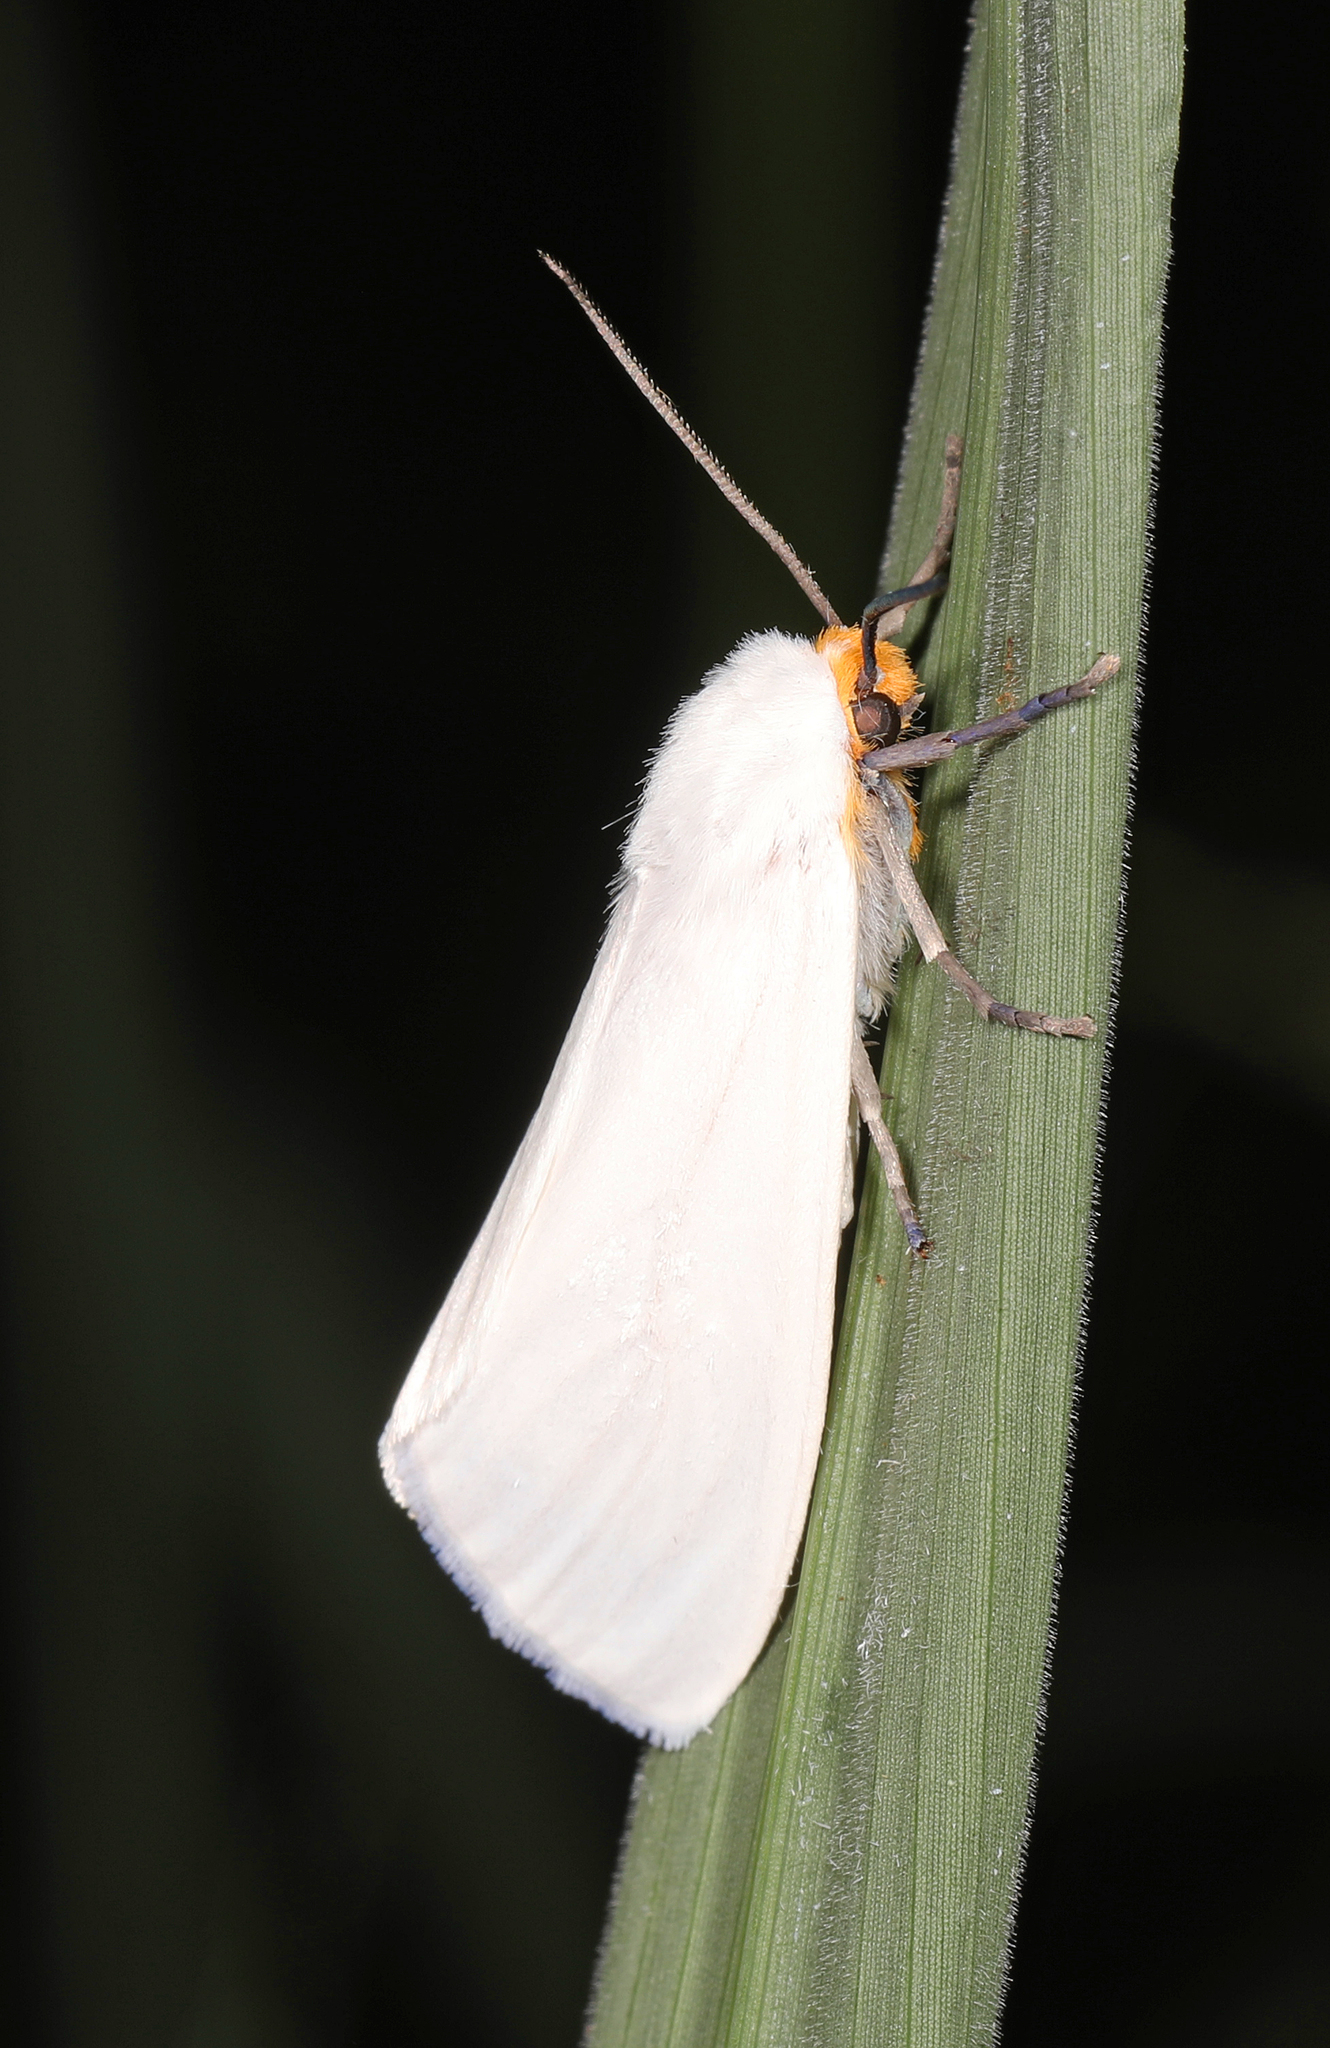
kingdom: Animalia
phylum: Arthropoda
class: Insecta
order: Lepidoptera
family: Erebidae
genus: Pygarctia
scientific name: Pygarctia flavidorsalis
